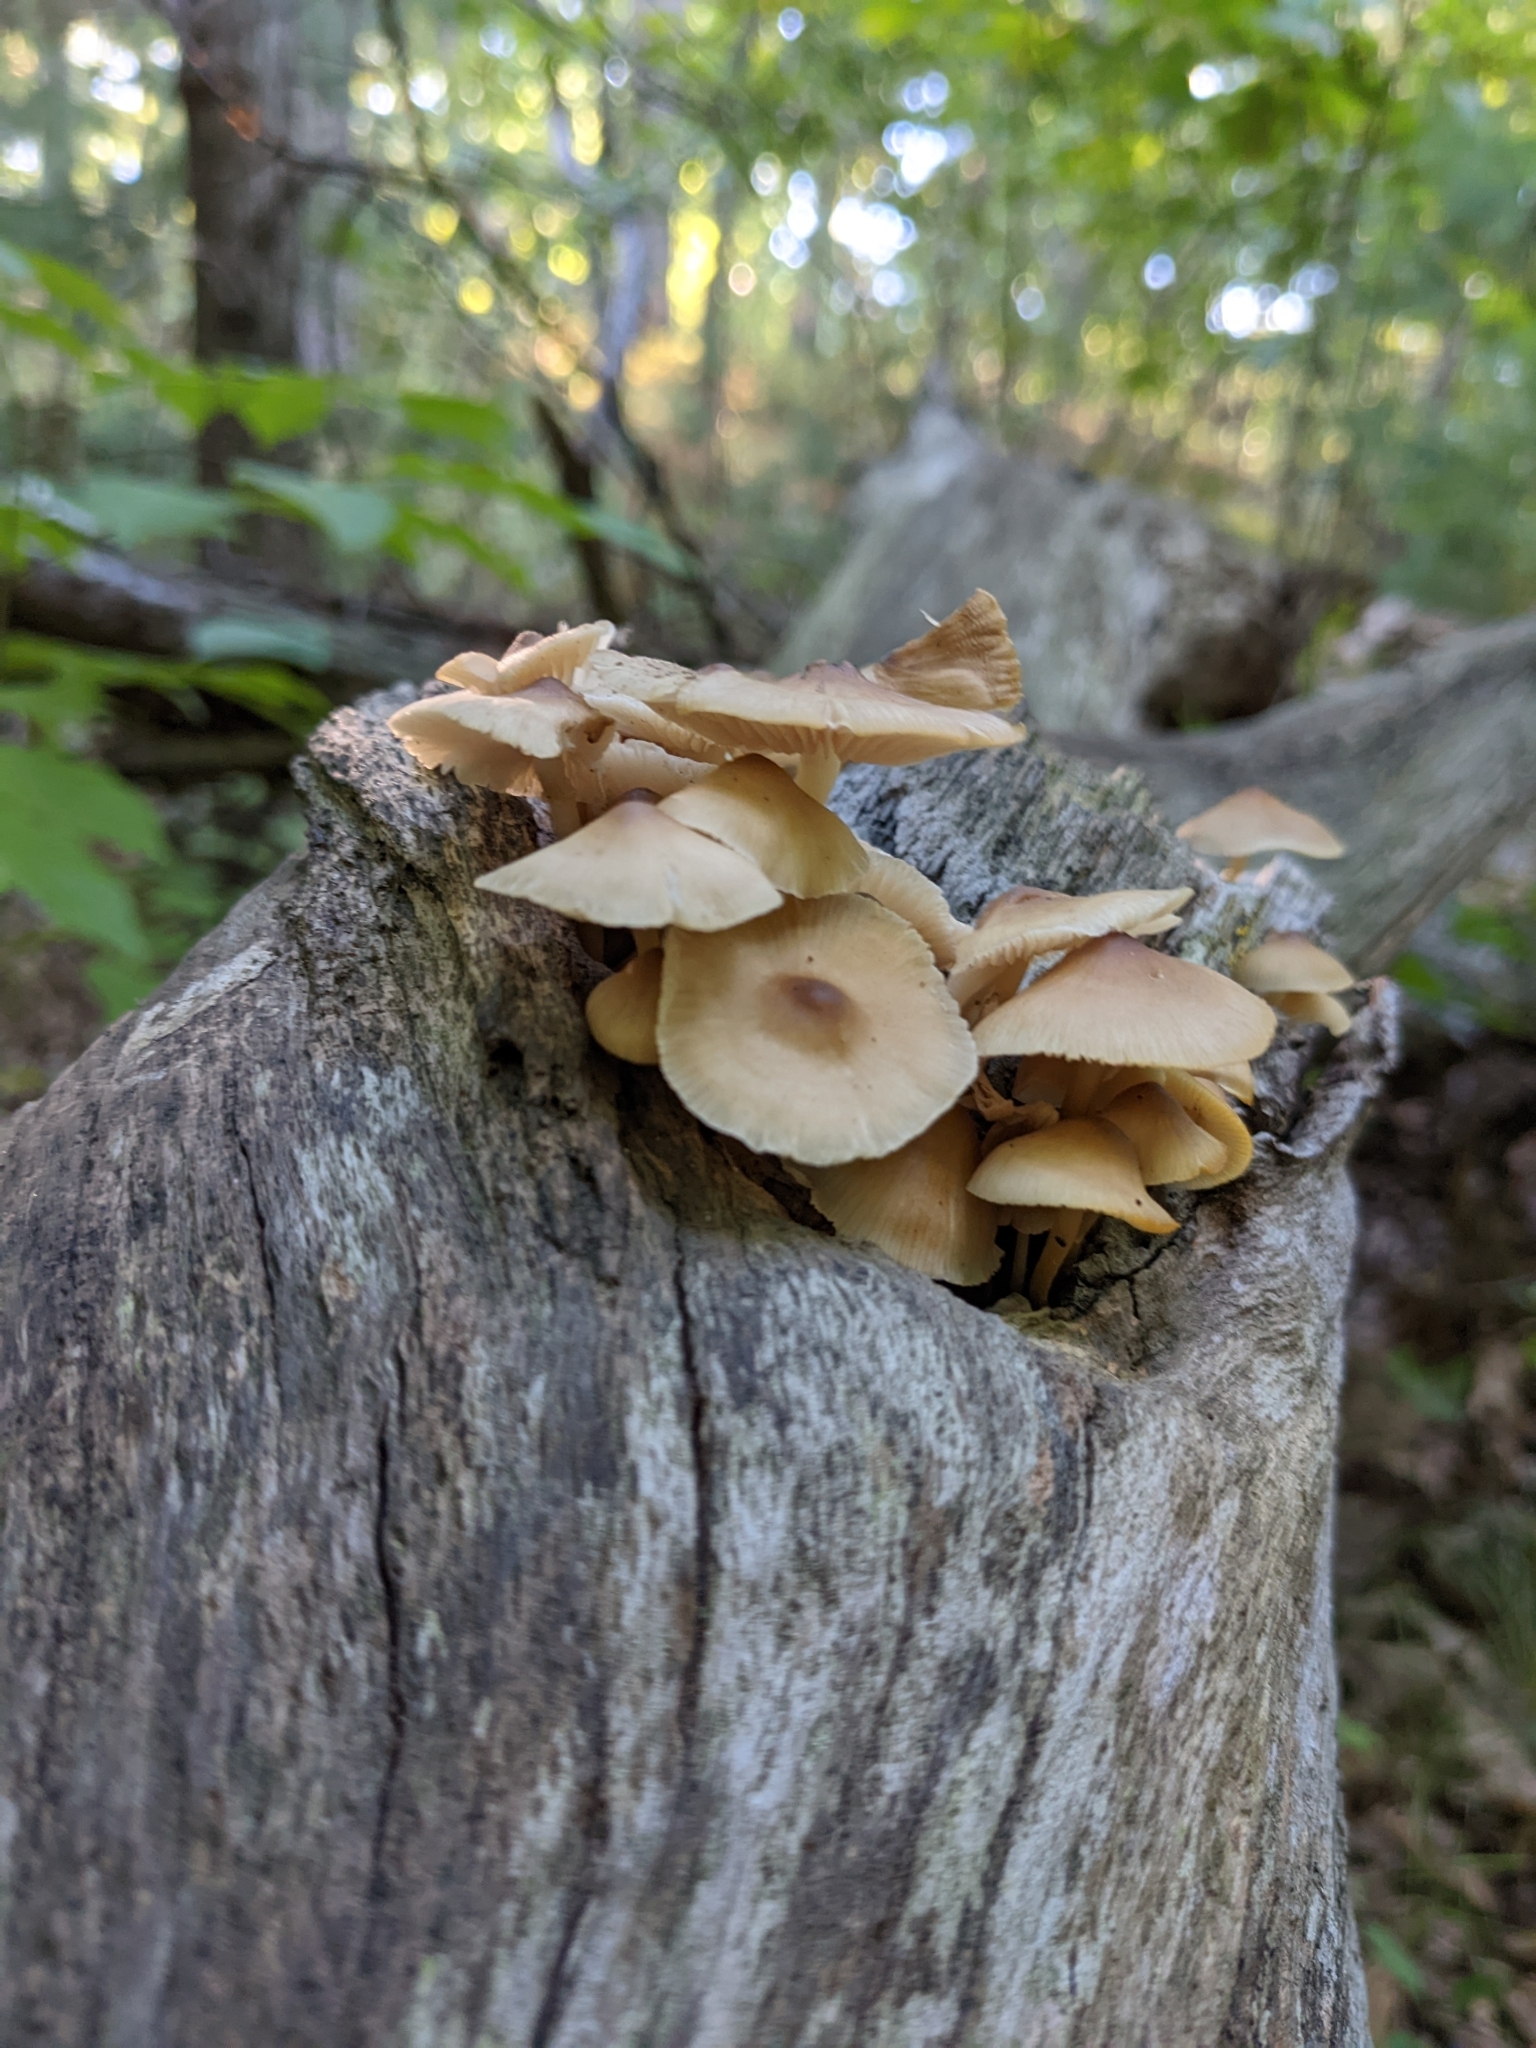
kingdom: Fungi
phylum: Basidiomycota
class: Agaricomycetes
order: Agaricales
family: Mycenaceae
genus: Mycena
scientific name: Mycena inclinata
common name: Clustered bonnet
